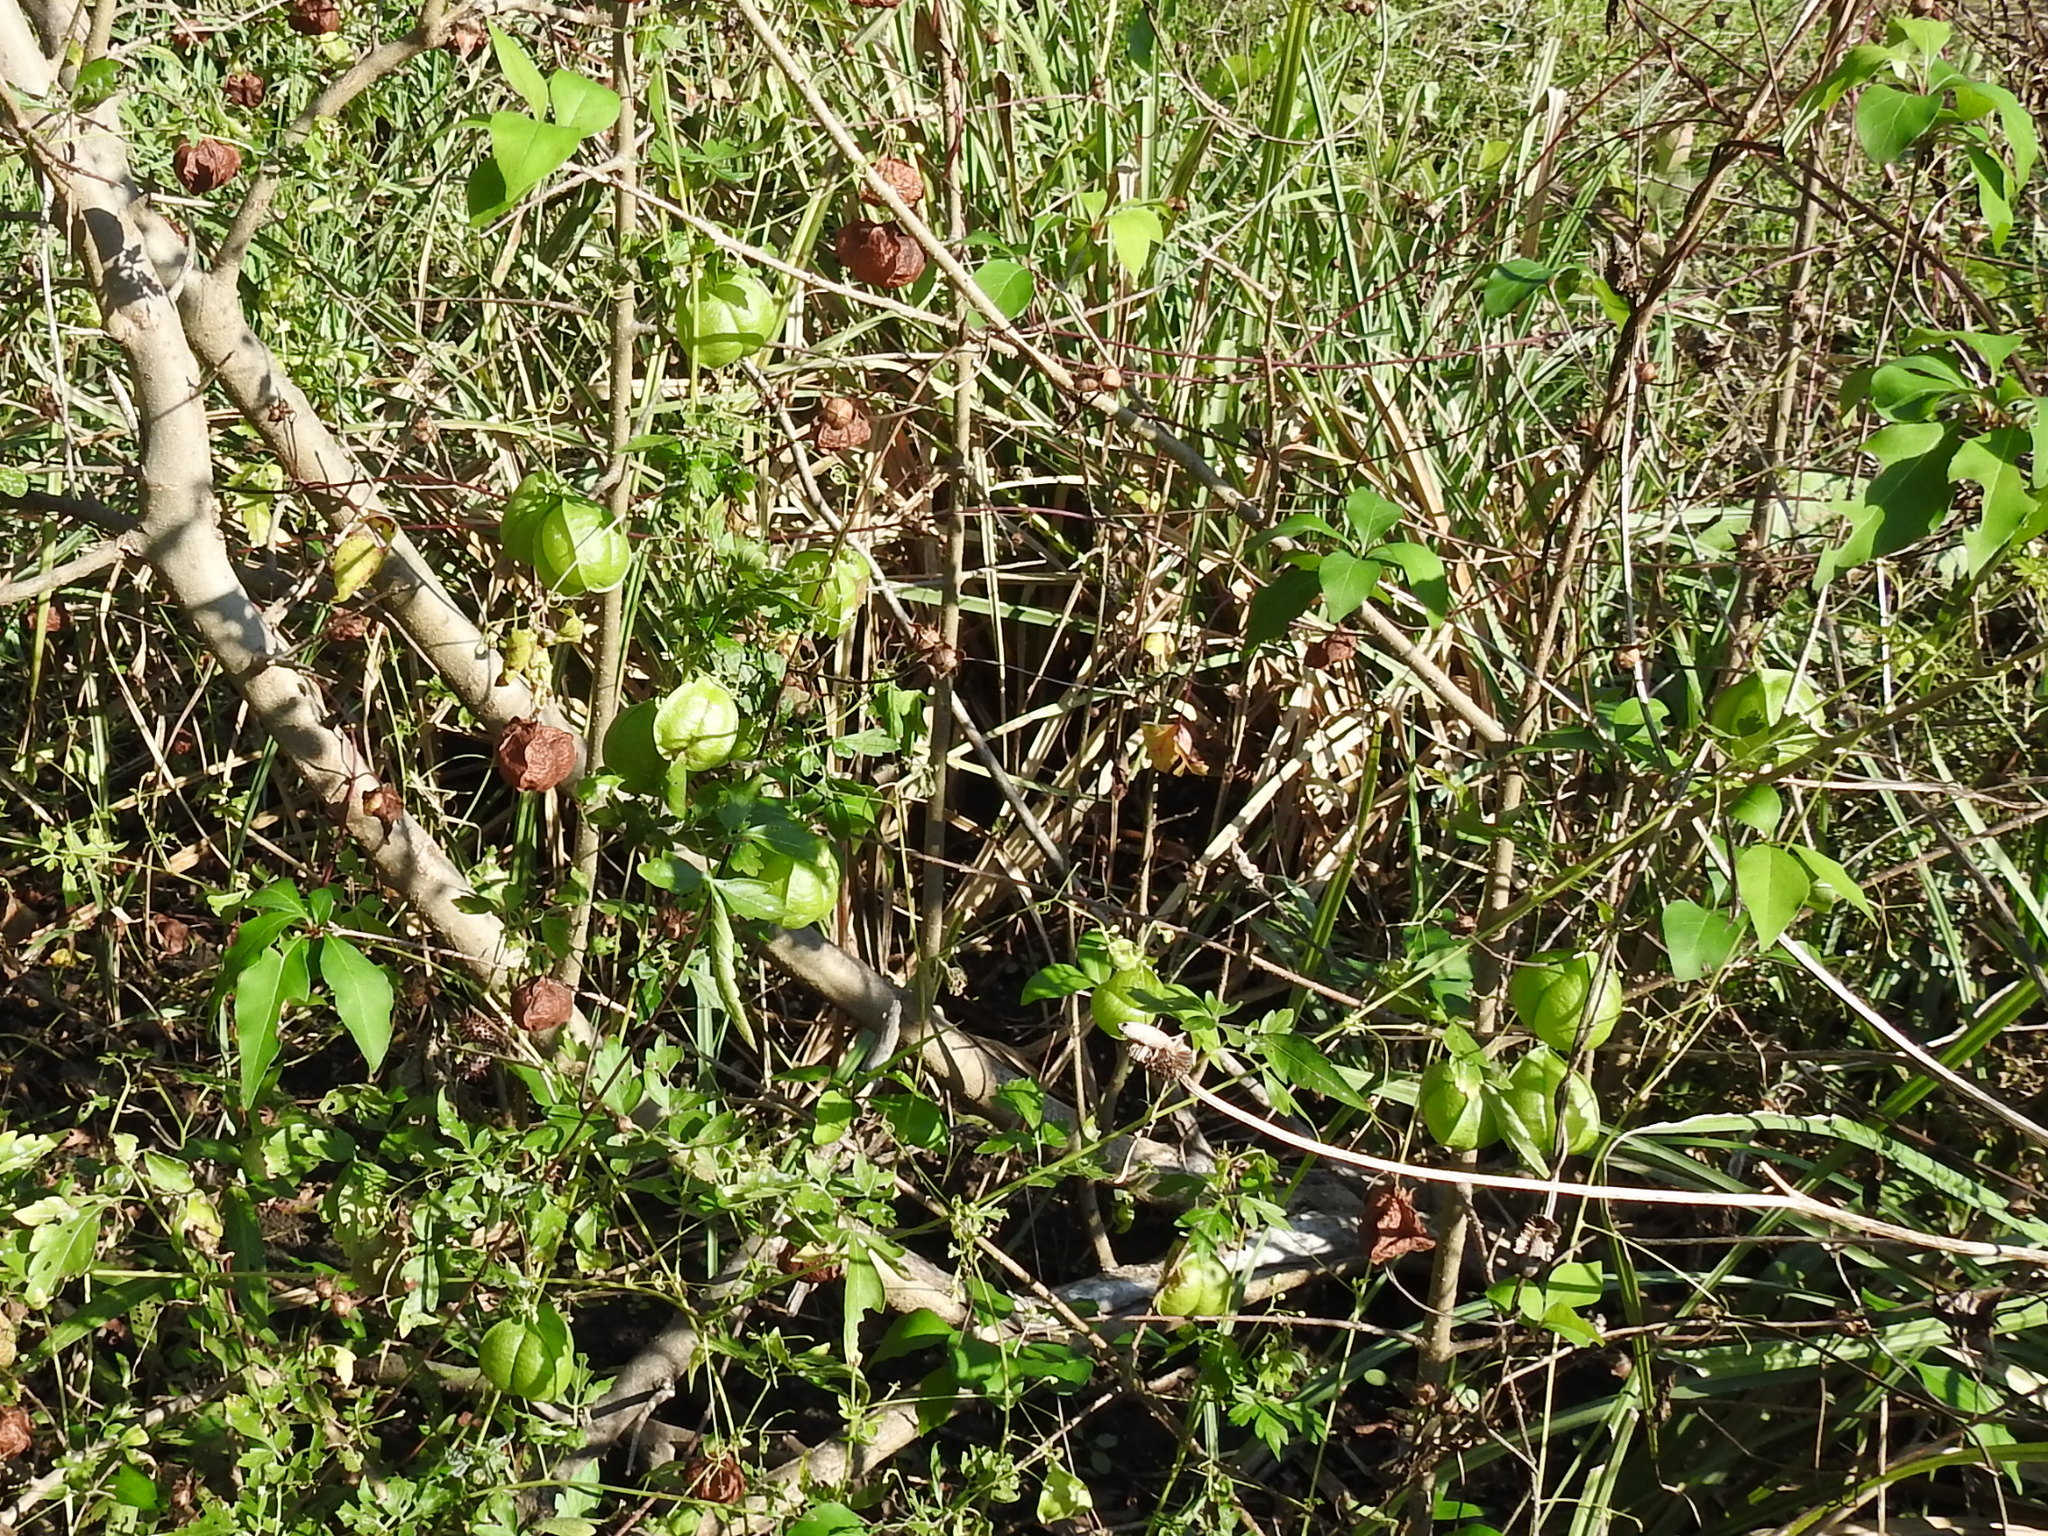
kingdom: Plantae
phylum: Tracheophyta
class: Magnoliopsida
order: Sapindales
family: Sapindaceae
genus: Cardiospermum
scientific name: Cardiospermum halicacabum
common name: Balloon vine
